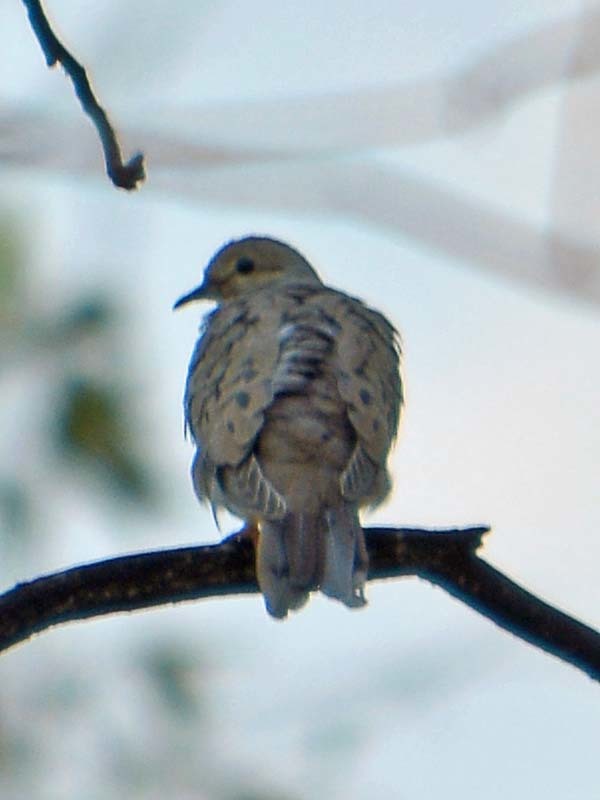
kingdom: Animalia
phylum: Chordata
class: Aves
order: Columbiformes
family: Columbidae
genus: Zenaida
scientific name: Zenaida macroura
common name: Mourning dove
